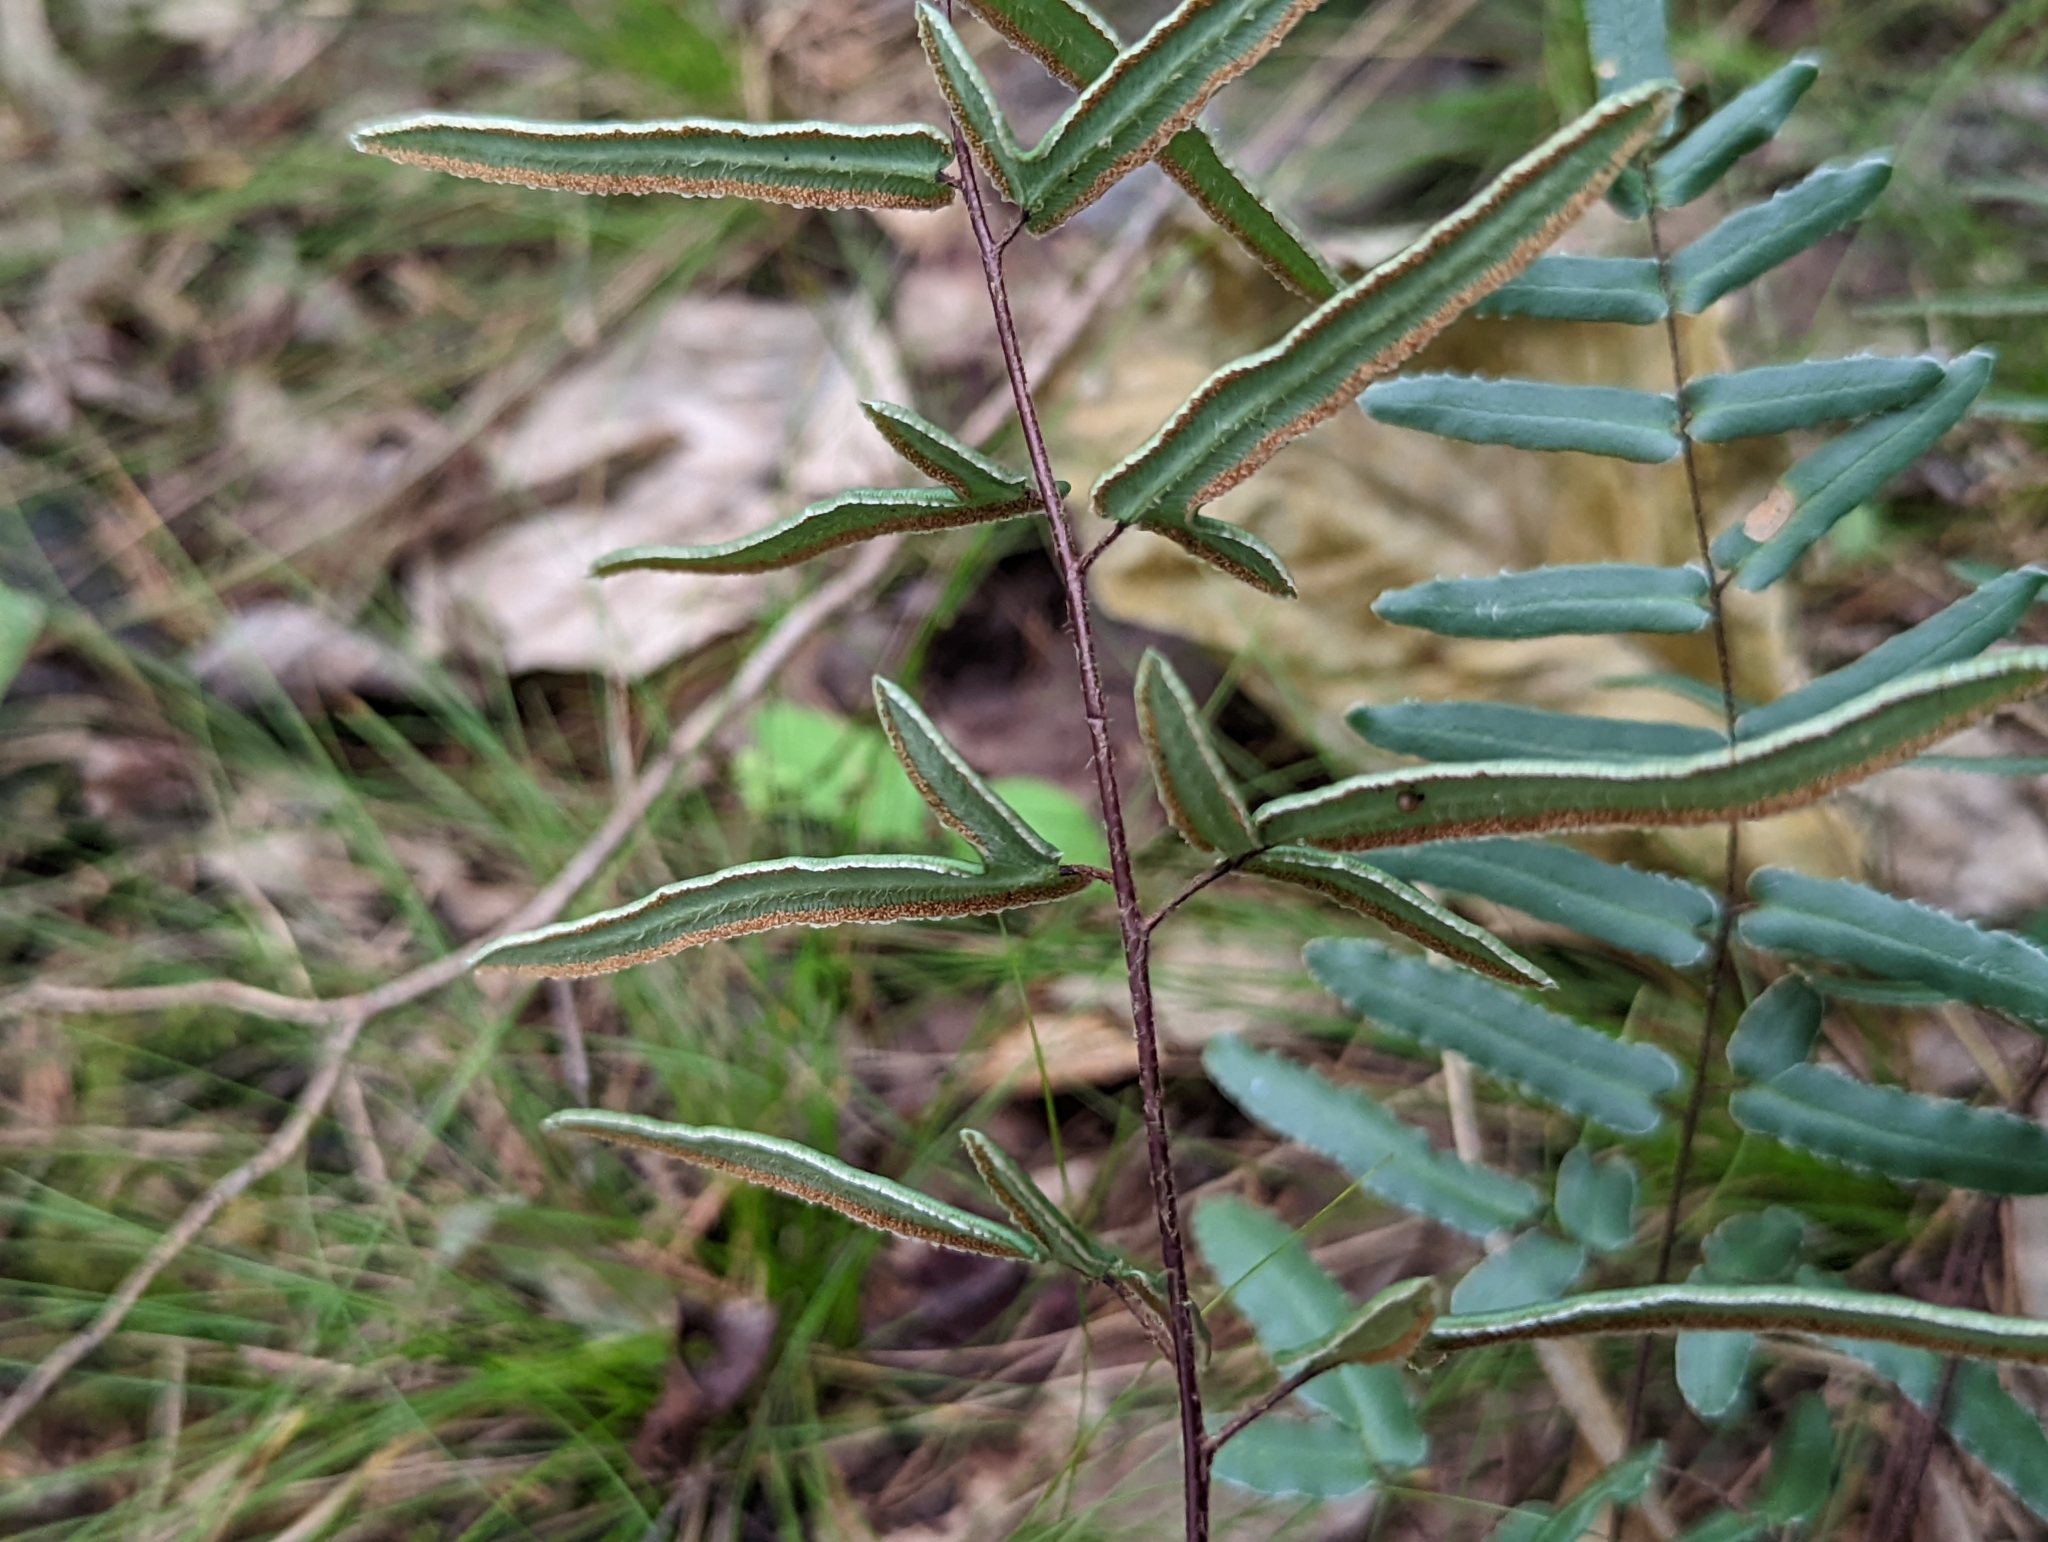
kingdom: Plantae
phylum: Tracheophyta
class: Polypodiopsida
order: Polypodiales
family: Pteridaceae
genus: Pellaea
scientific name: Pellaea atropurpurea
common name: Hairy cliffbrake
